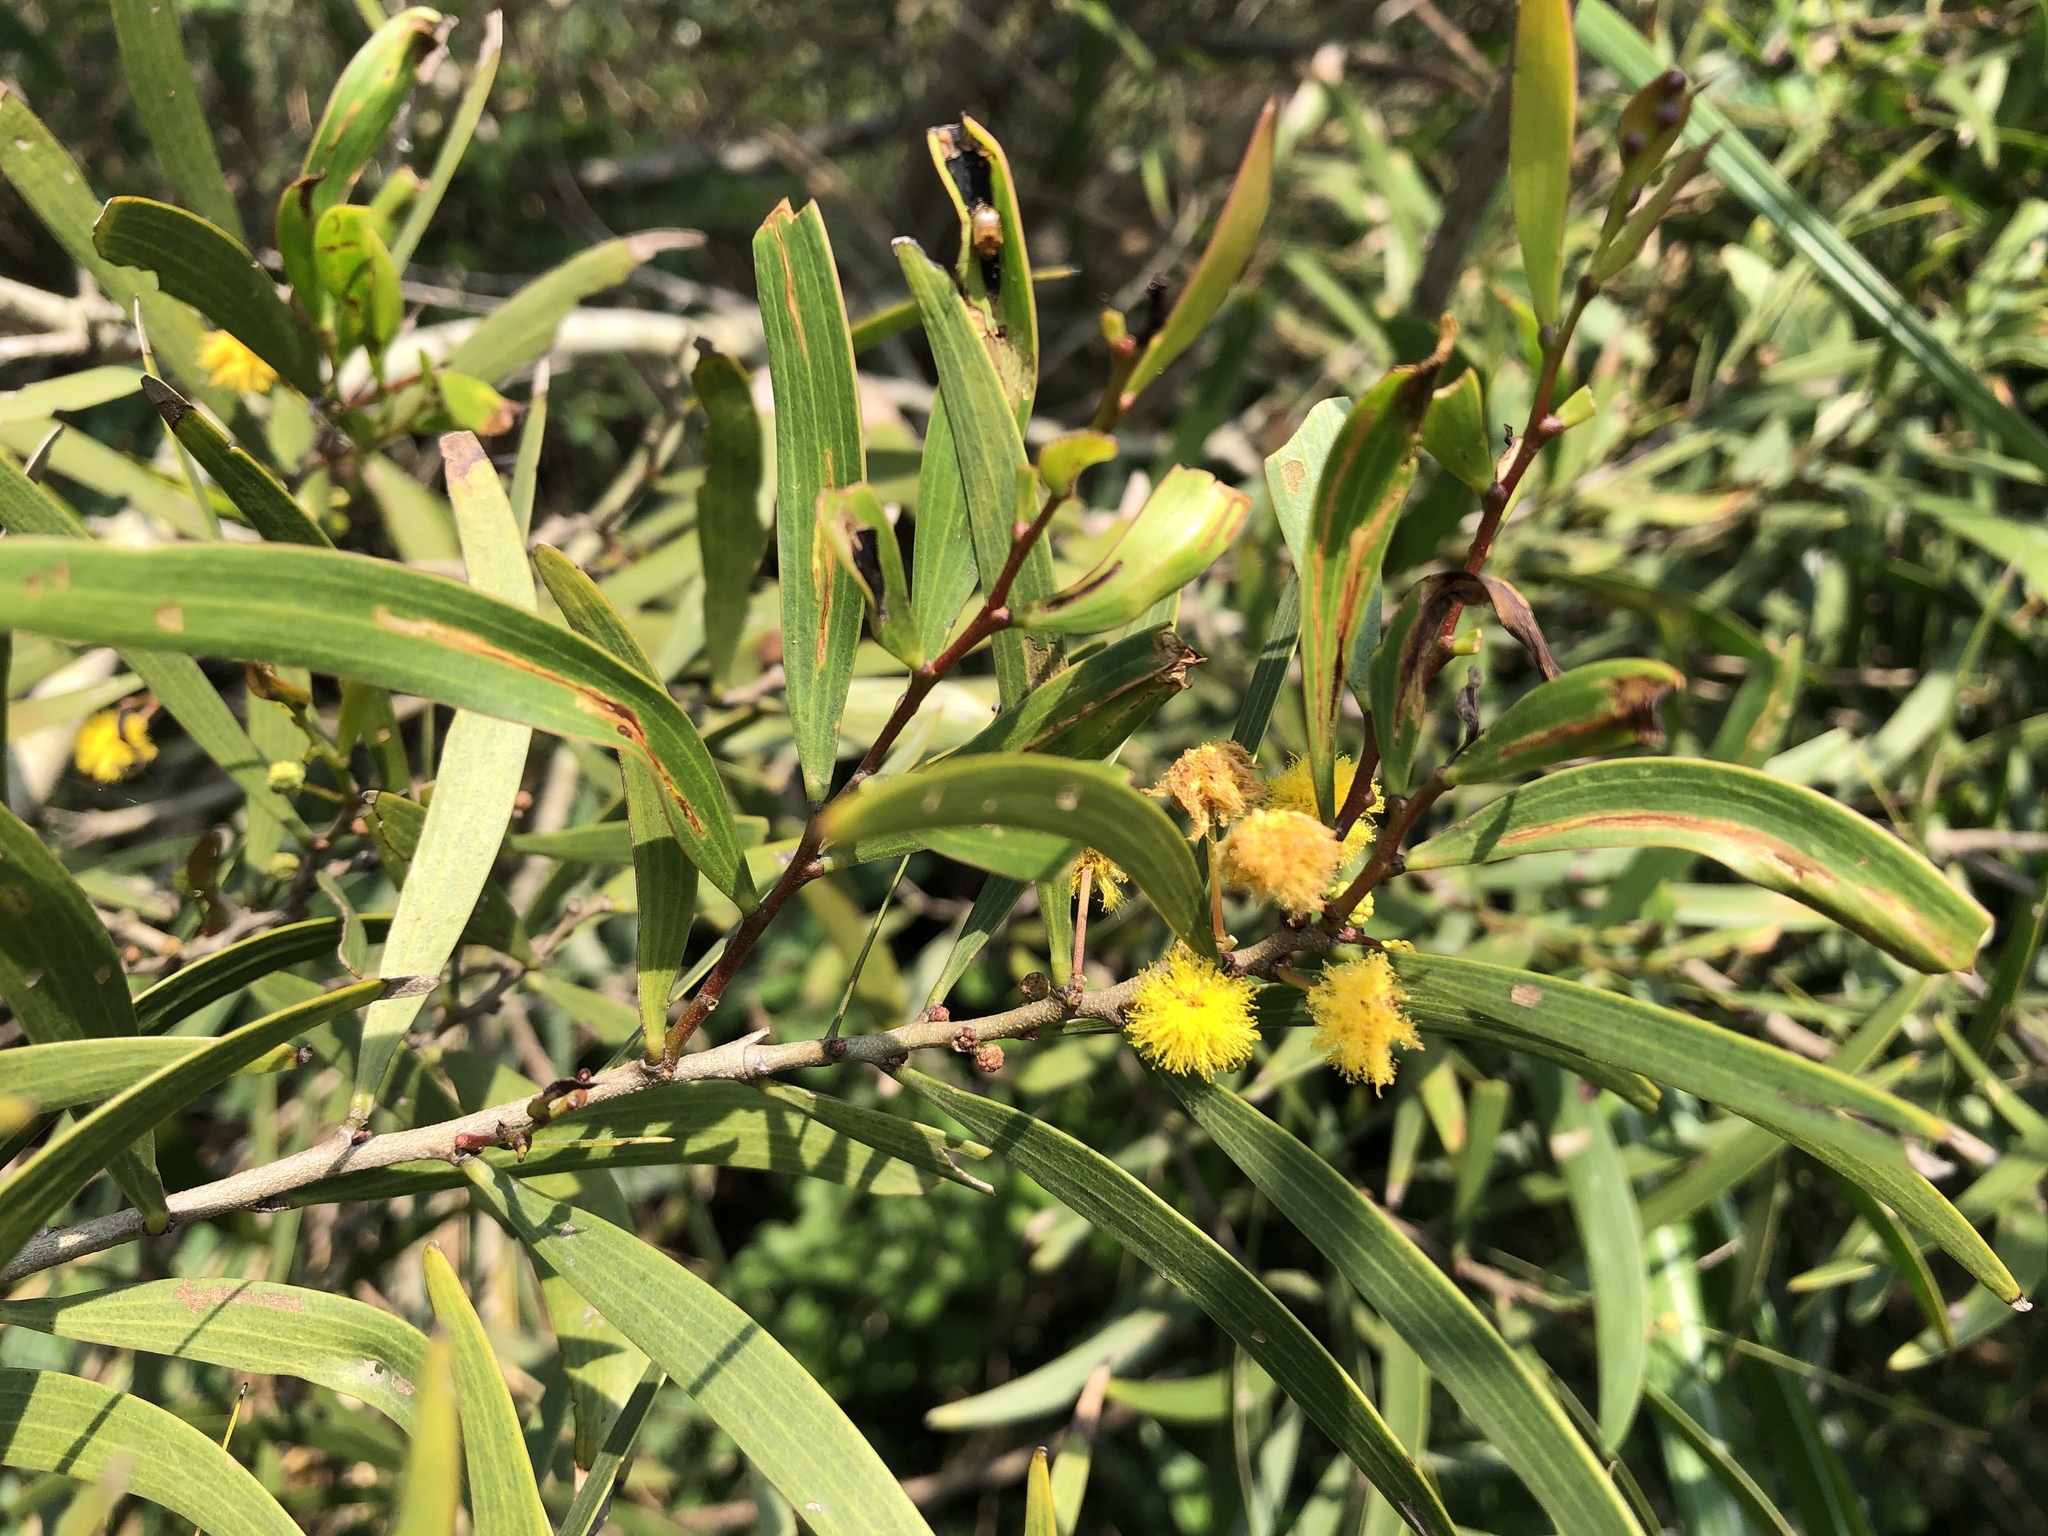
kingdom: Plantae
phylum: Tracheophyta
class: Magnoliopsida
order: Fabales
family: Fabaceae
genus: Acacia
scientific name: Acacia confusa
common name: Formosan koa
